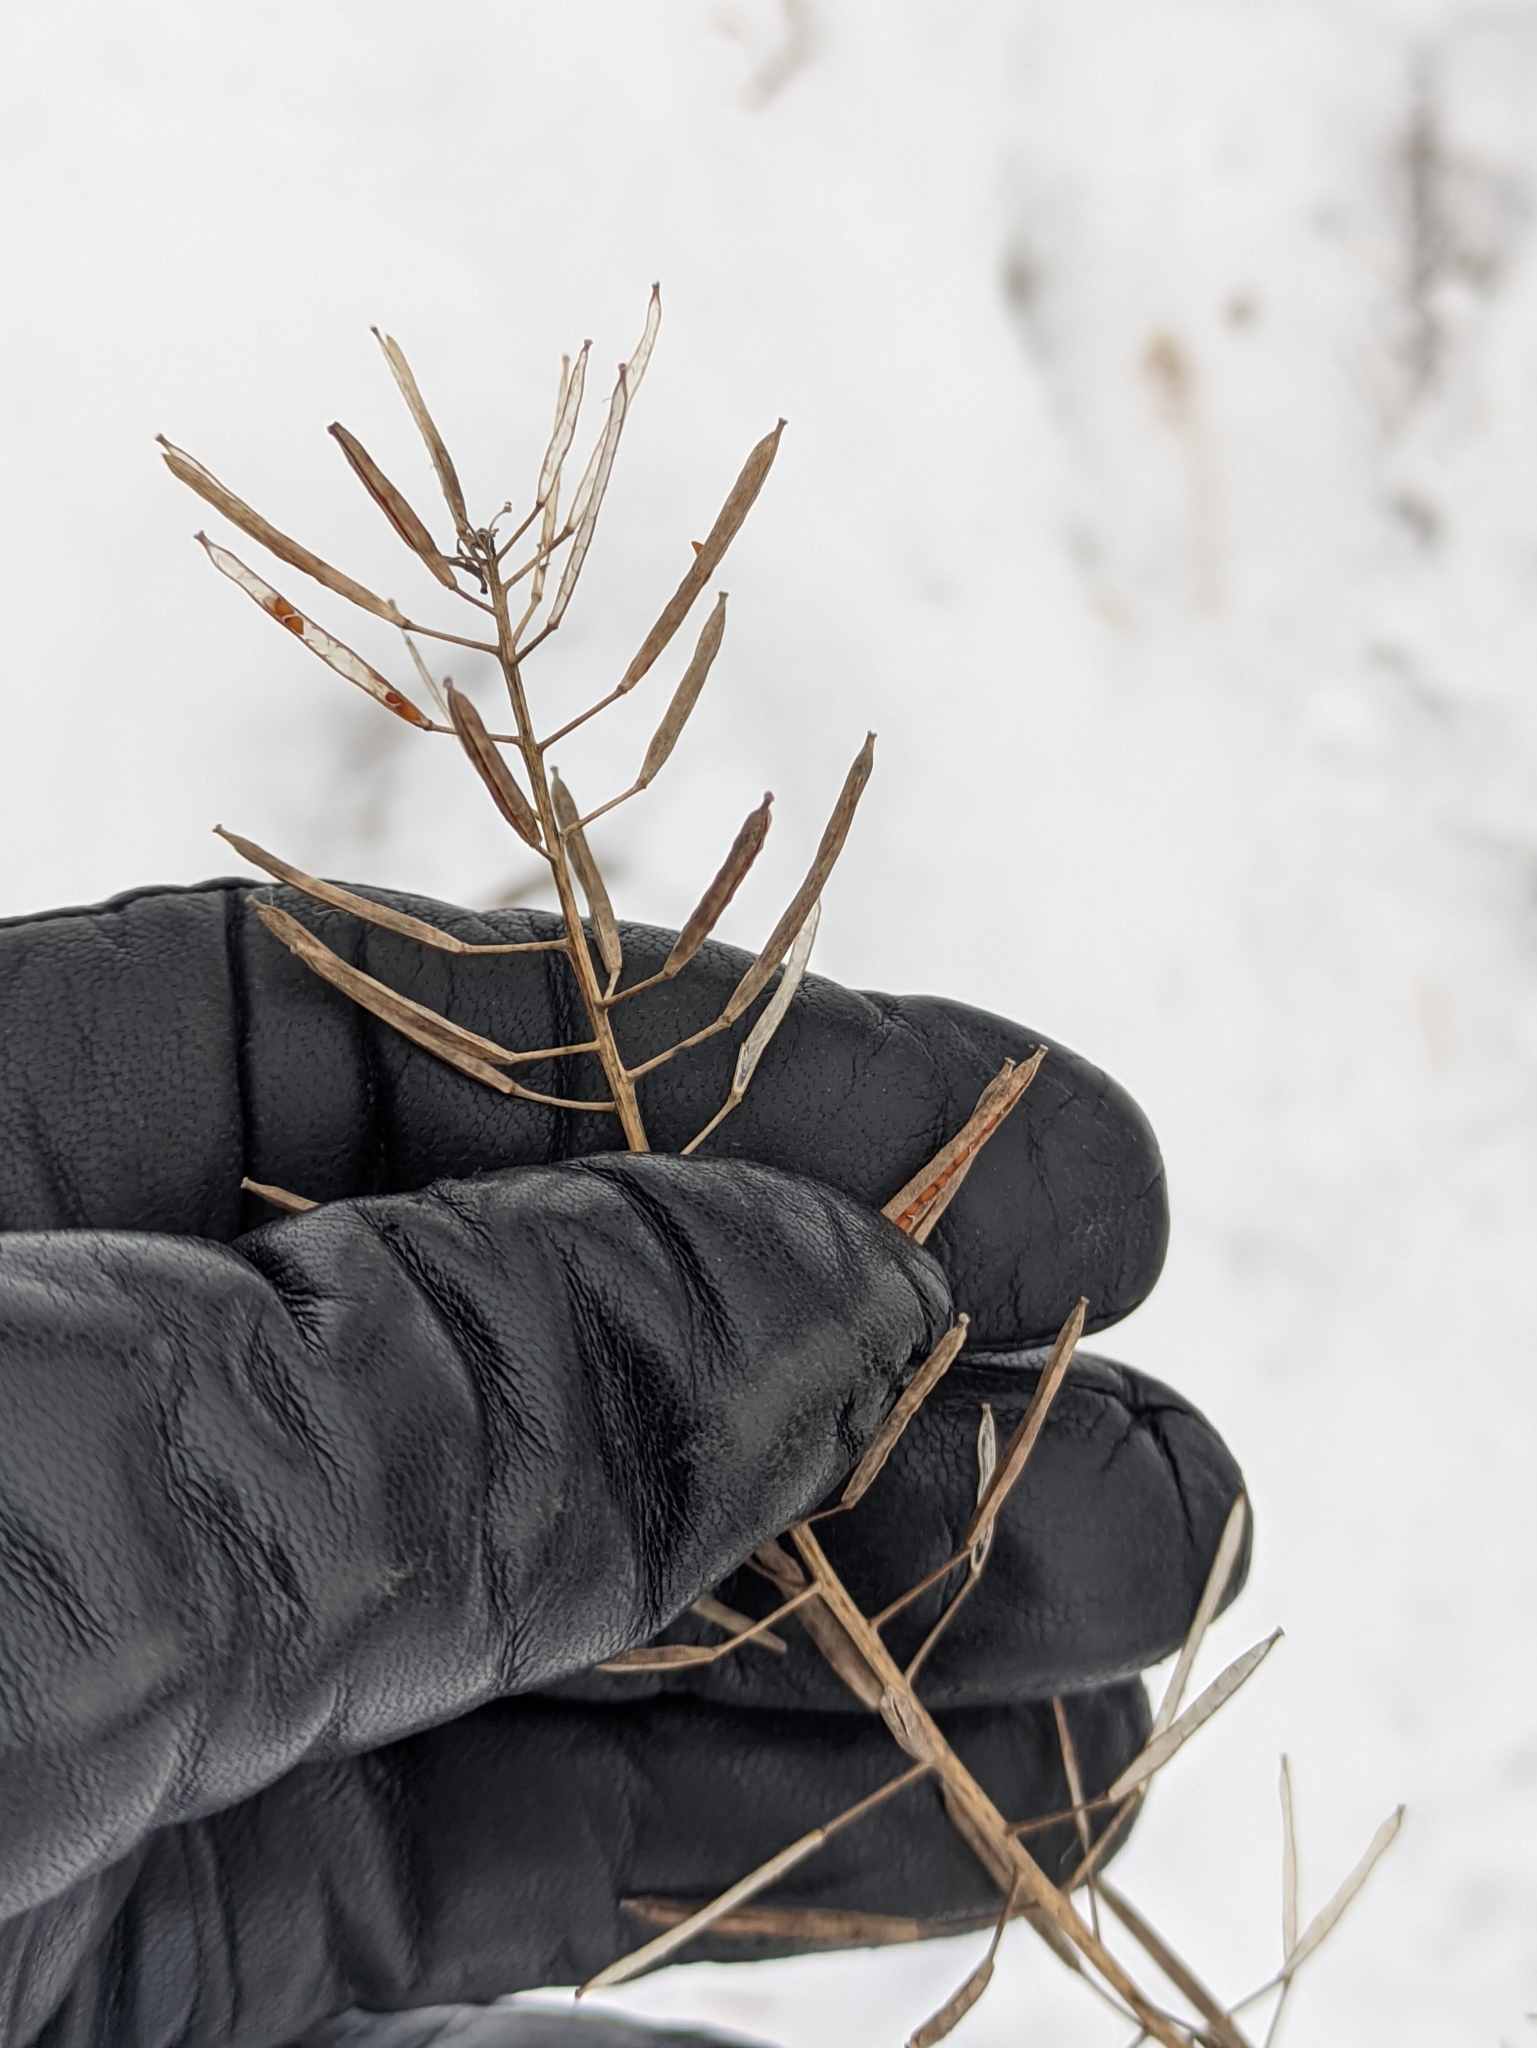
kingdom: Plantae
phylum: Tracheophyta
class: Magnoliopsida
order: Brassicales
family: Brassicaceae
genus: Erysimum
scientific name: Erysimum cheiranthoides
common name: Treacle mustard
